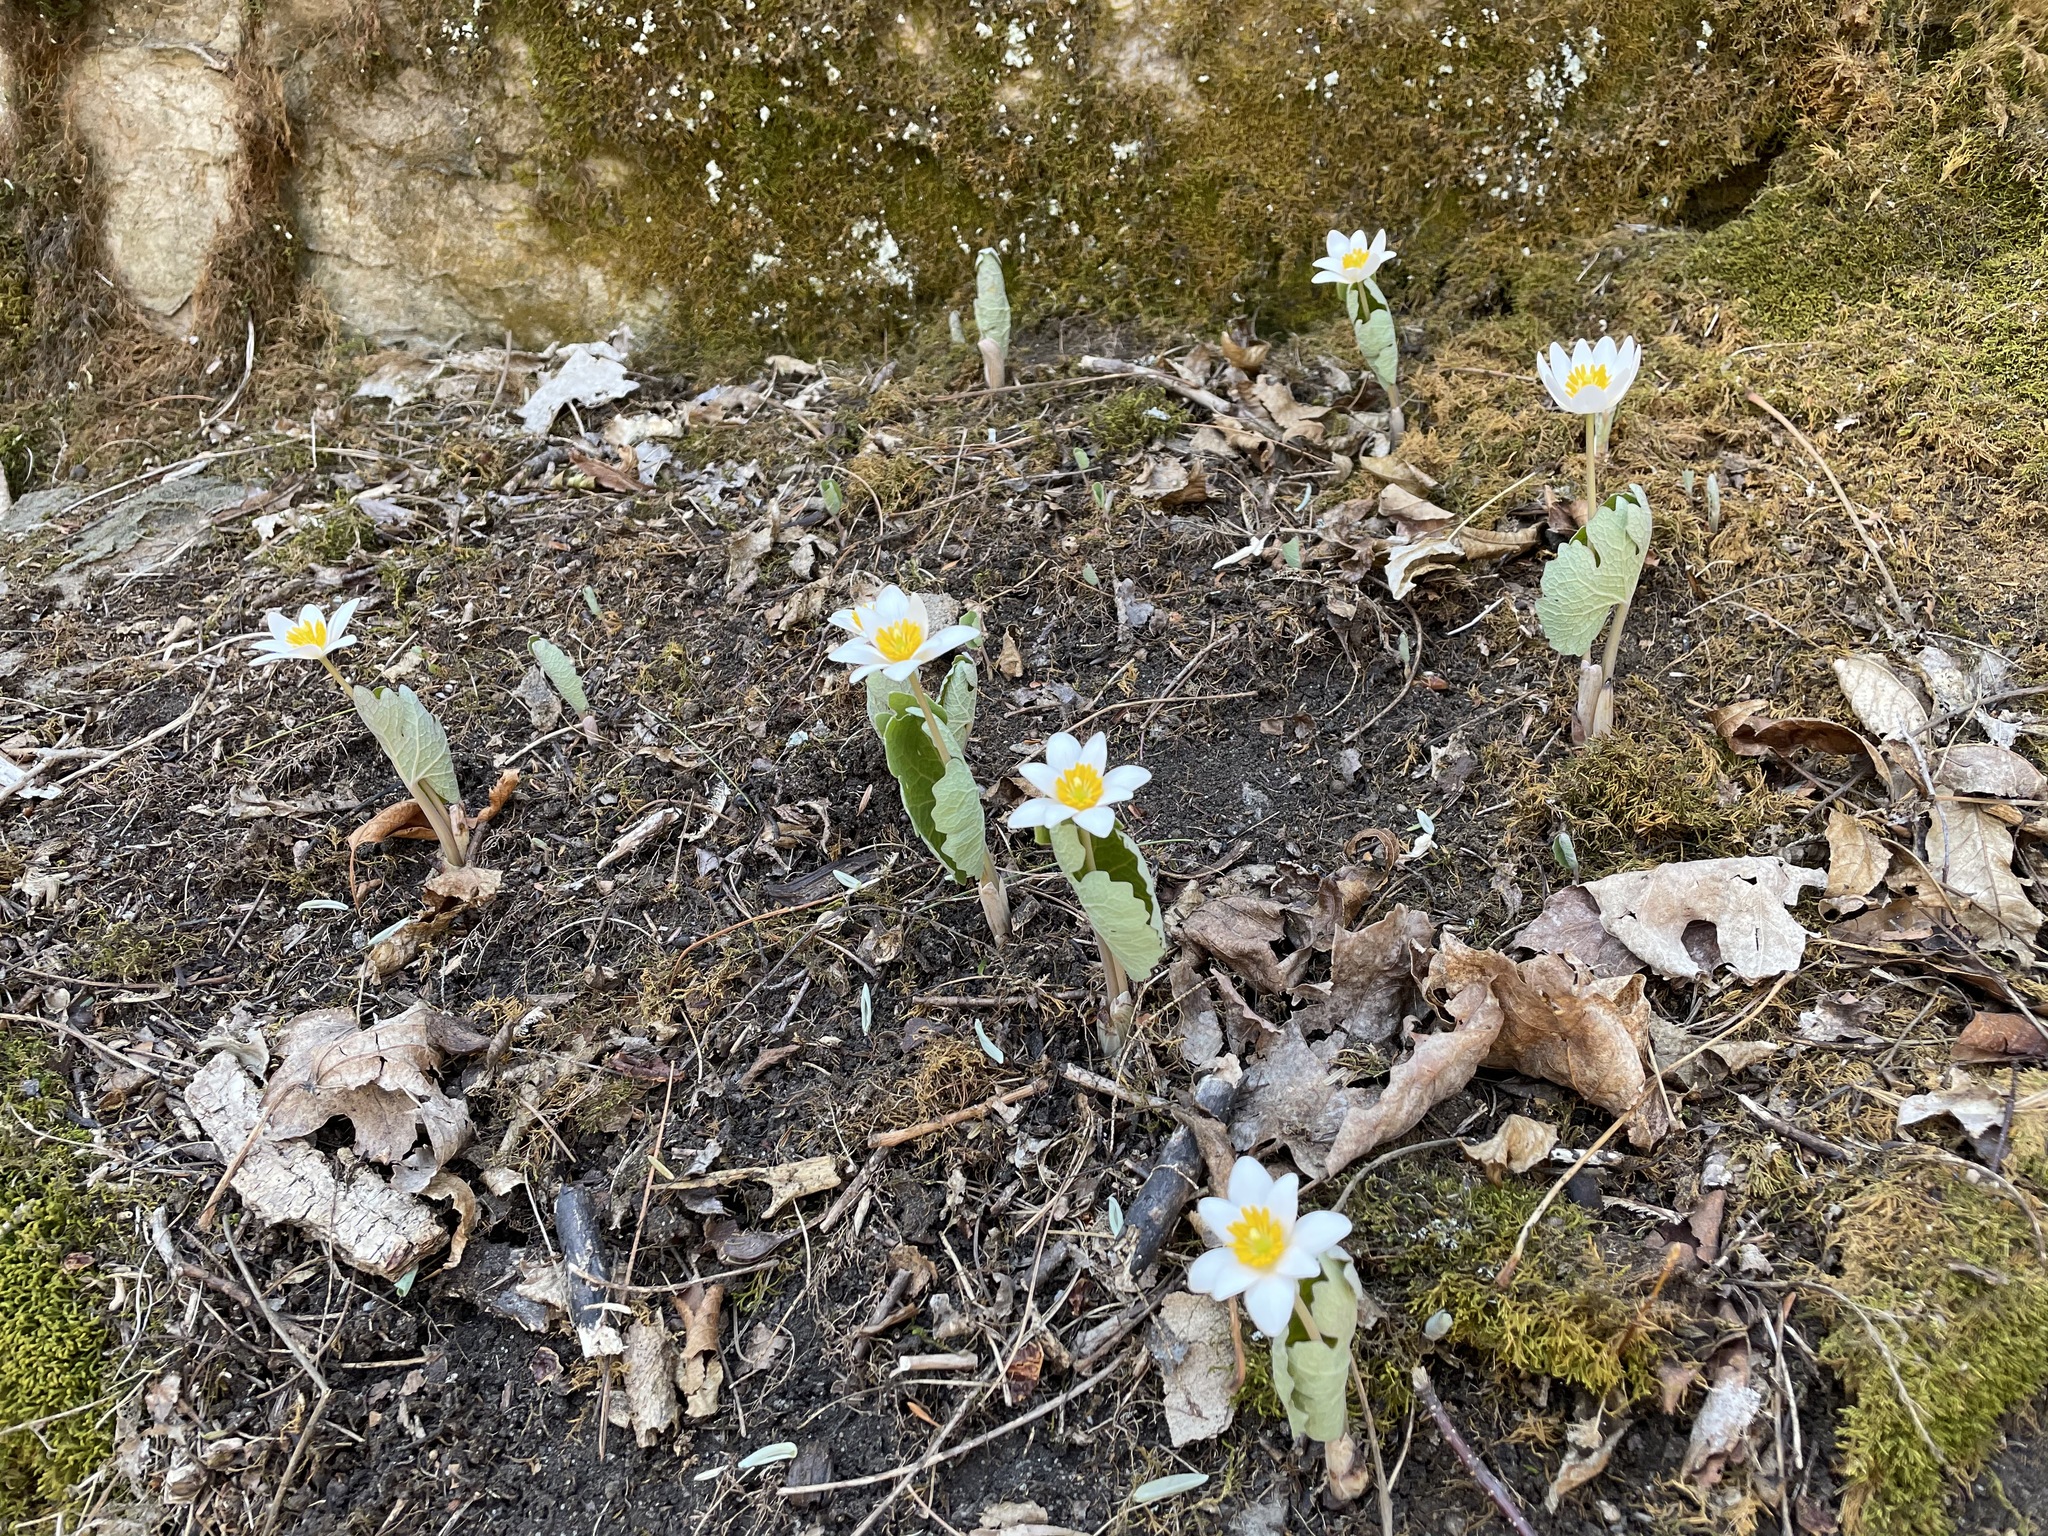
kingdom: Plantae
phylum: Tracheophyta
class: Magnoliopsida
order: Ranunculales
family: Papaveraceae
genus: Sanguinaria
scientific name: Sanguinaria canadensis
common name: Bloodroot
